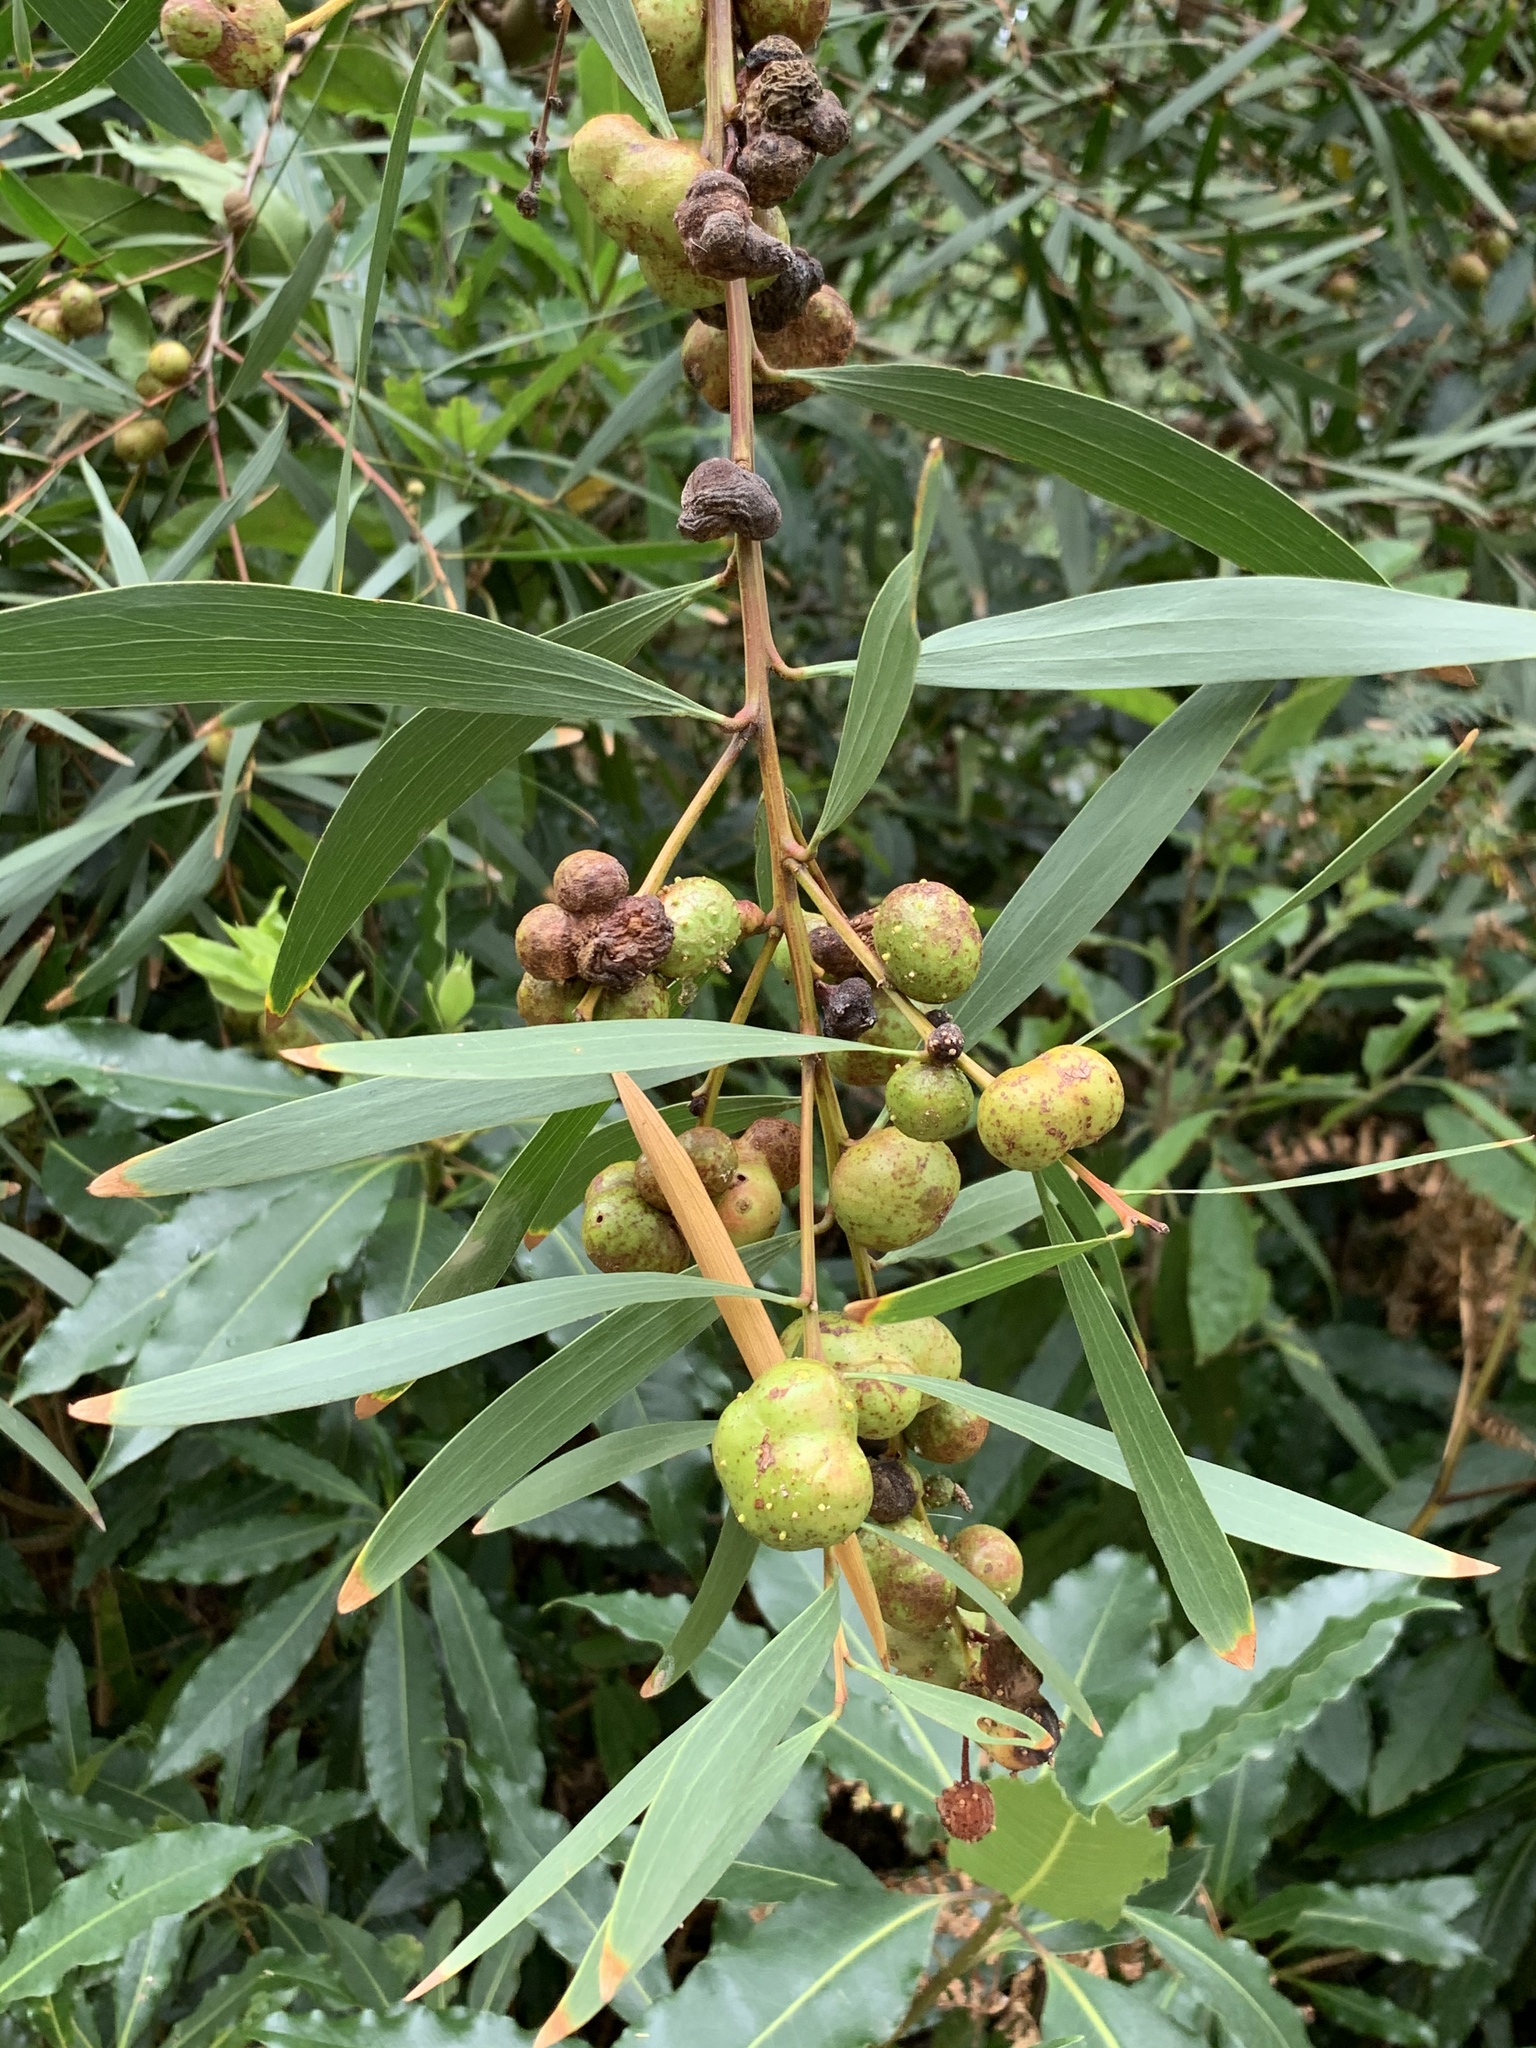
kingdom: Animalia
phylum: Arthropoda
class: Insecta
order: Hymenoptera
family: Pteromalidae
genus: Trichilogaster
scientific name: Trichilogaster acaciaelongifoliae
